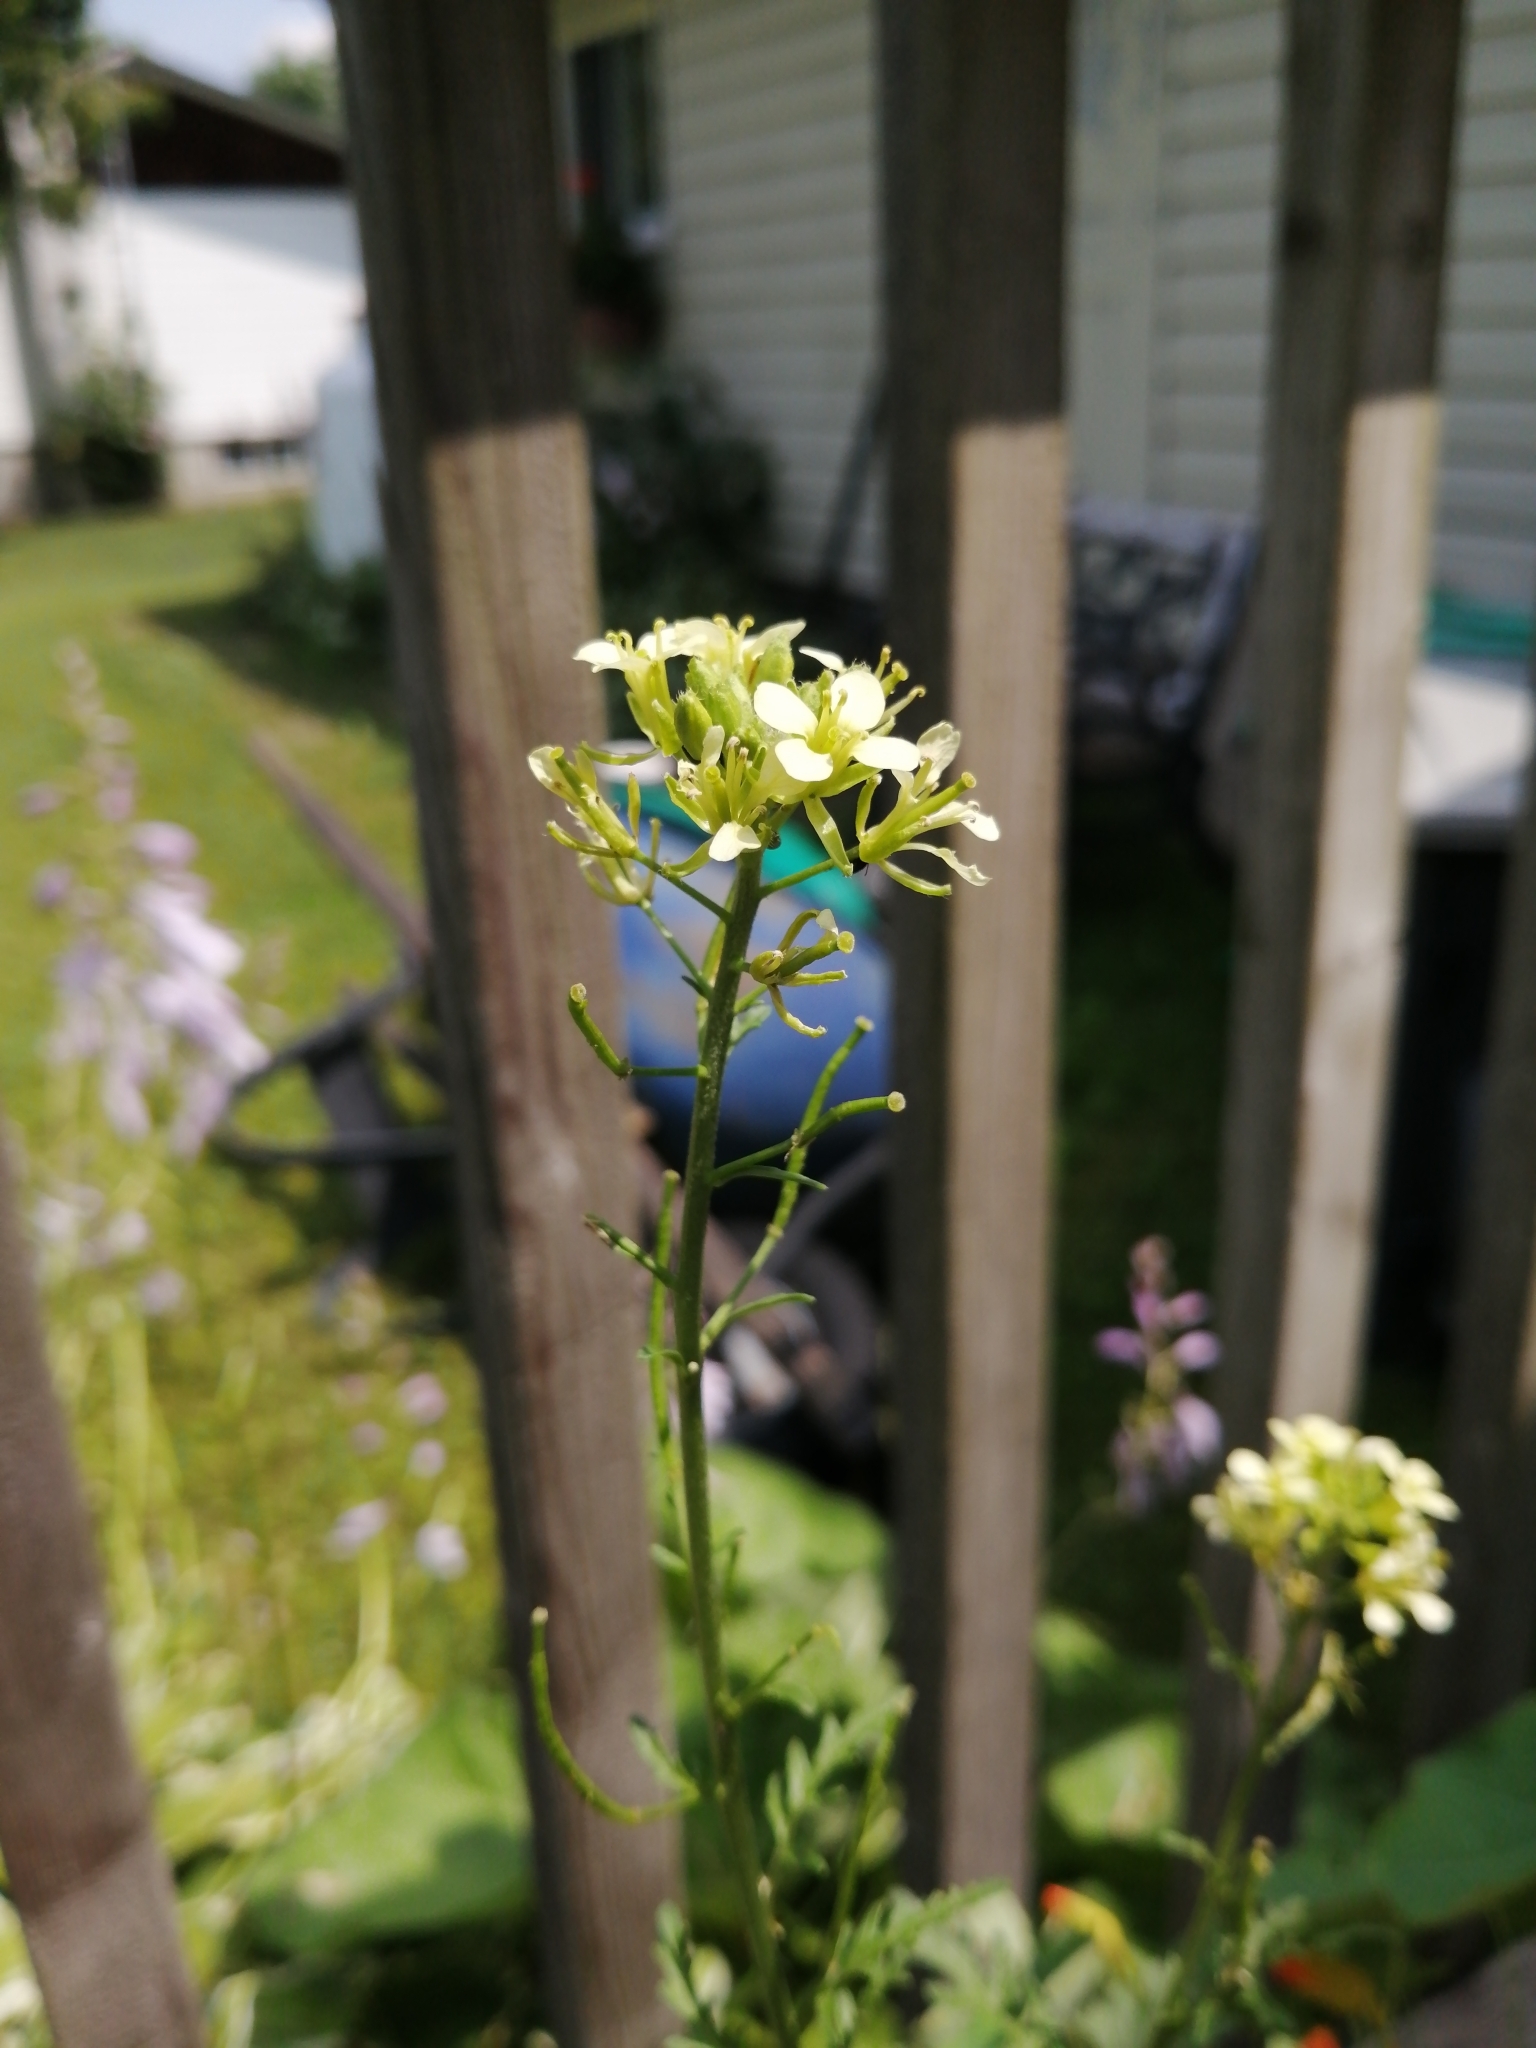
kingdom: Plantae
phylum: Tracheophyta
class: Magnoliopsida
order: Brassicales
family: Brassicaceae
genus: Erucastrum
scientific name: Erucastrum gallicum
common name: Hairy rocket
